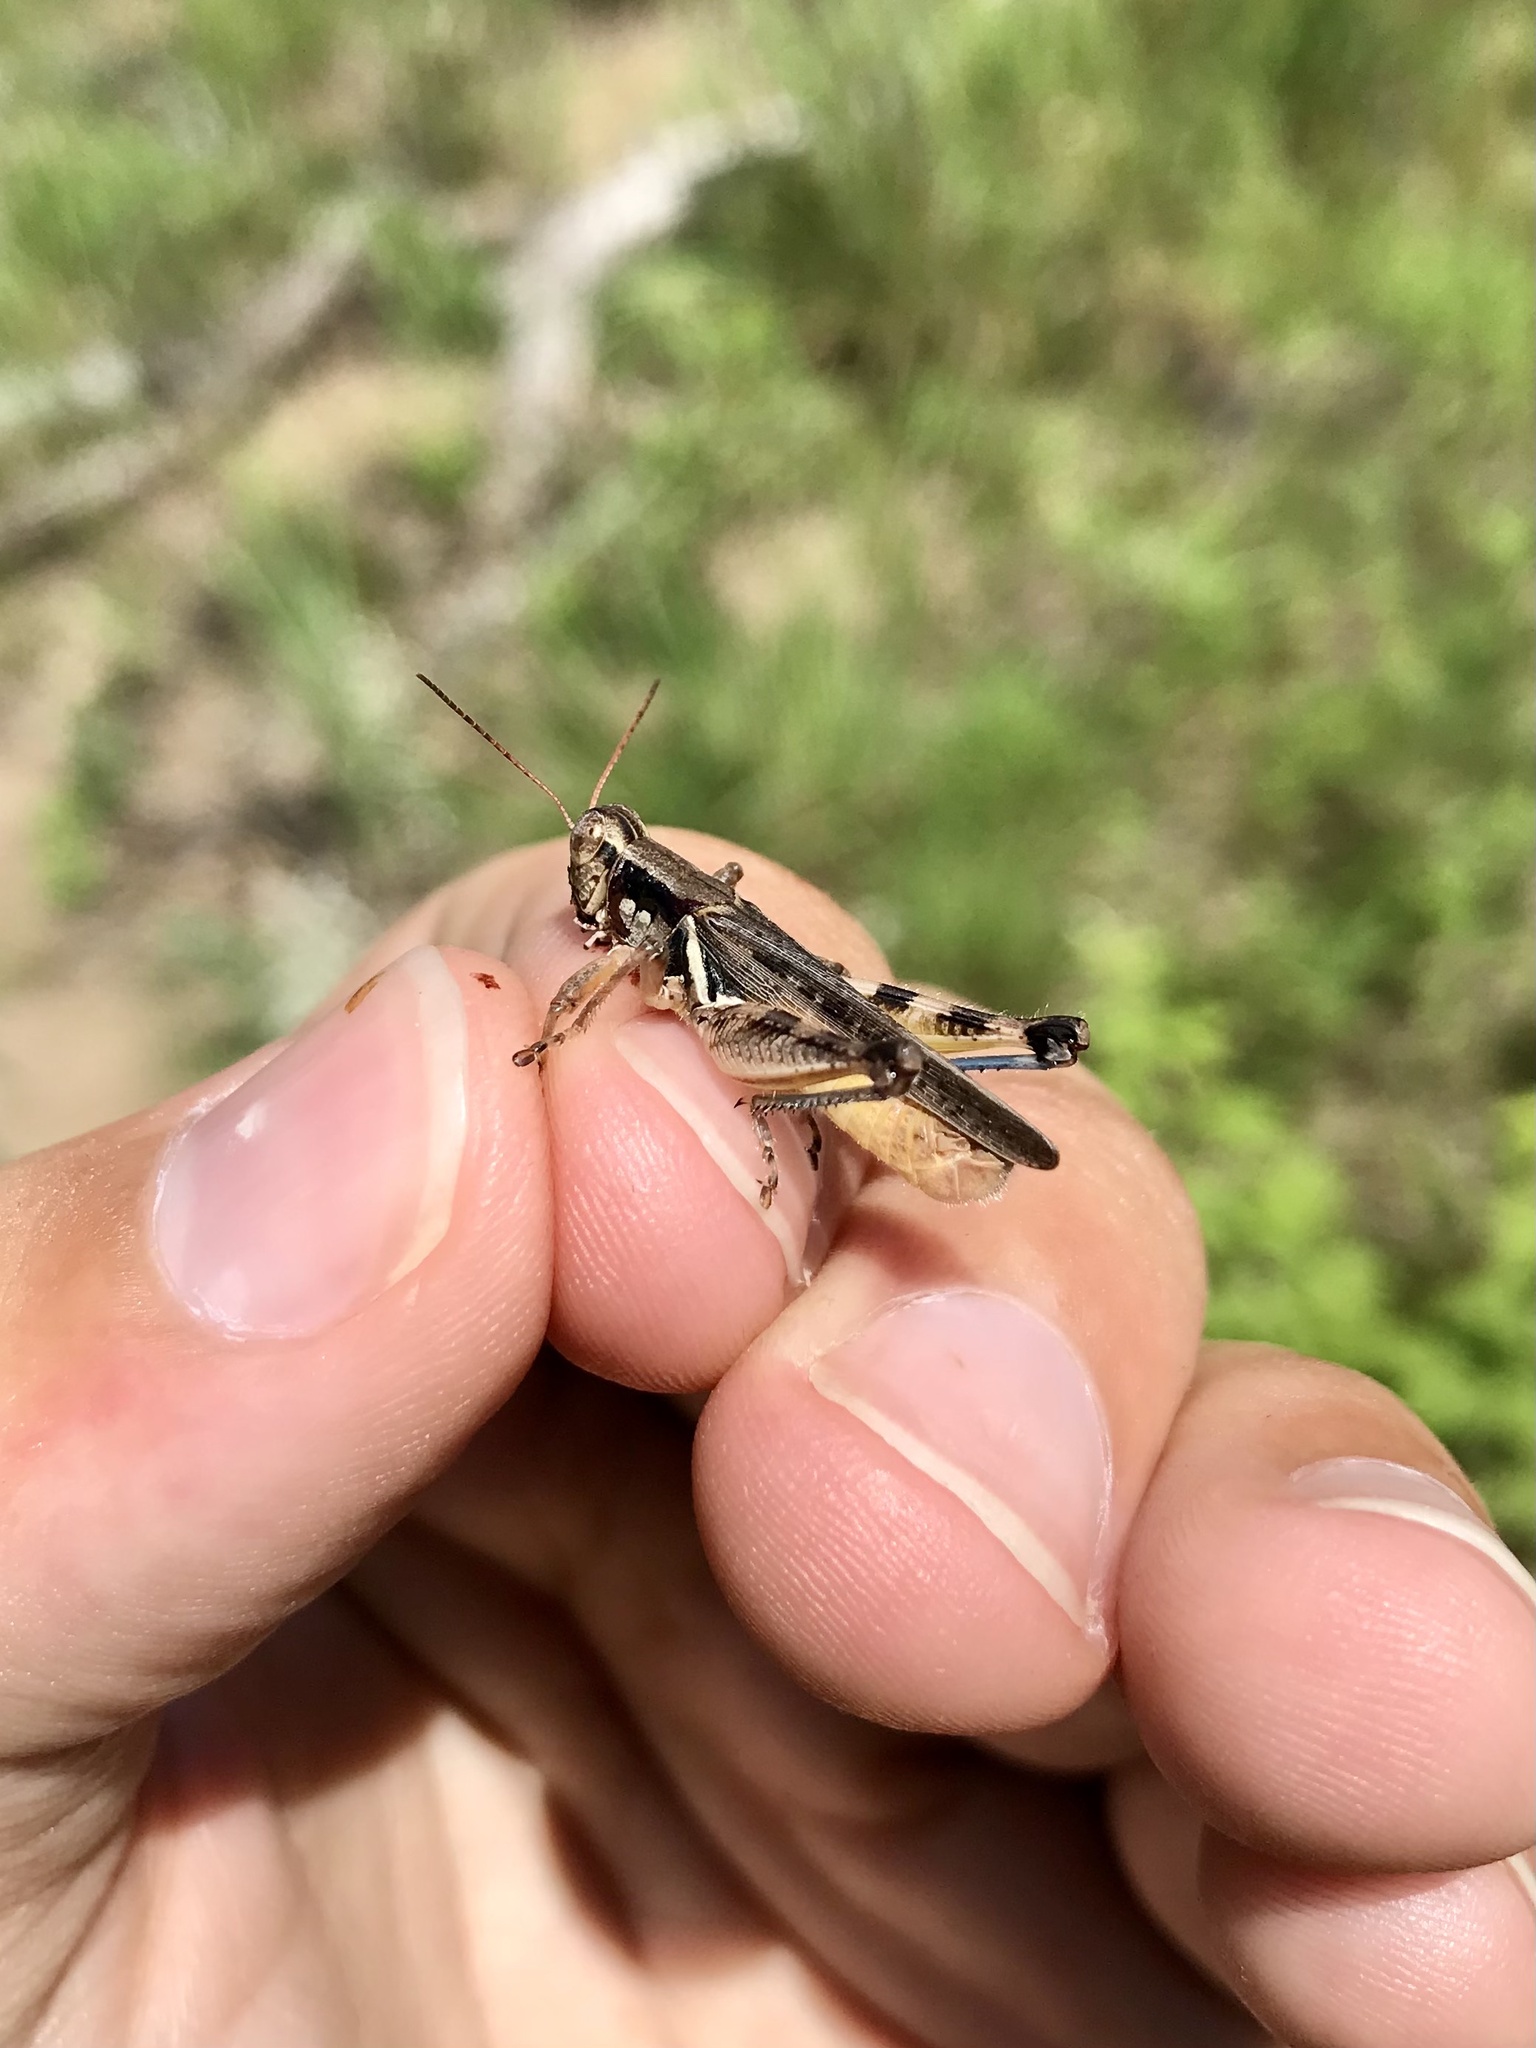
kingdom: Animalia
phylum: Arthropoda
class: Insecta
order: Orthoptera
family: Acrididae
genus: Melanoplus
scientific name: Melanoplus angustipennis
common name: Narrow-winged locust
